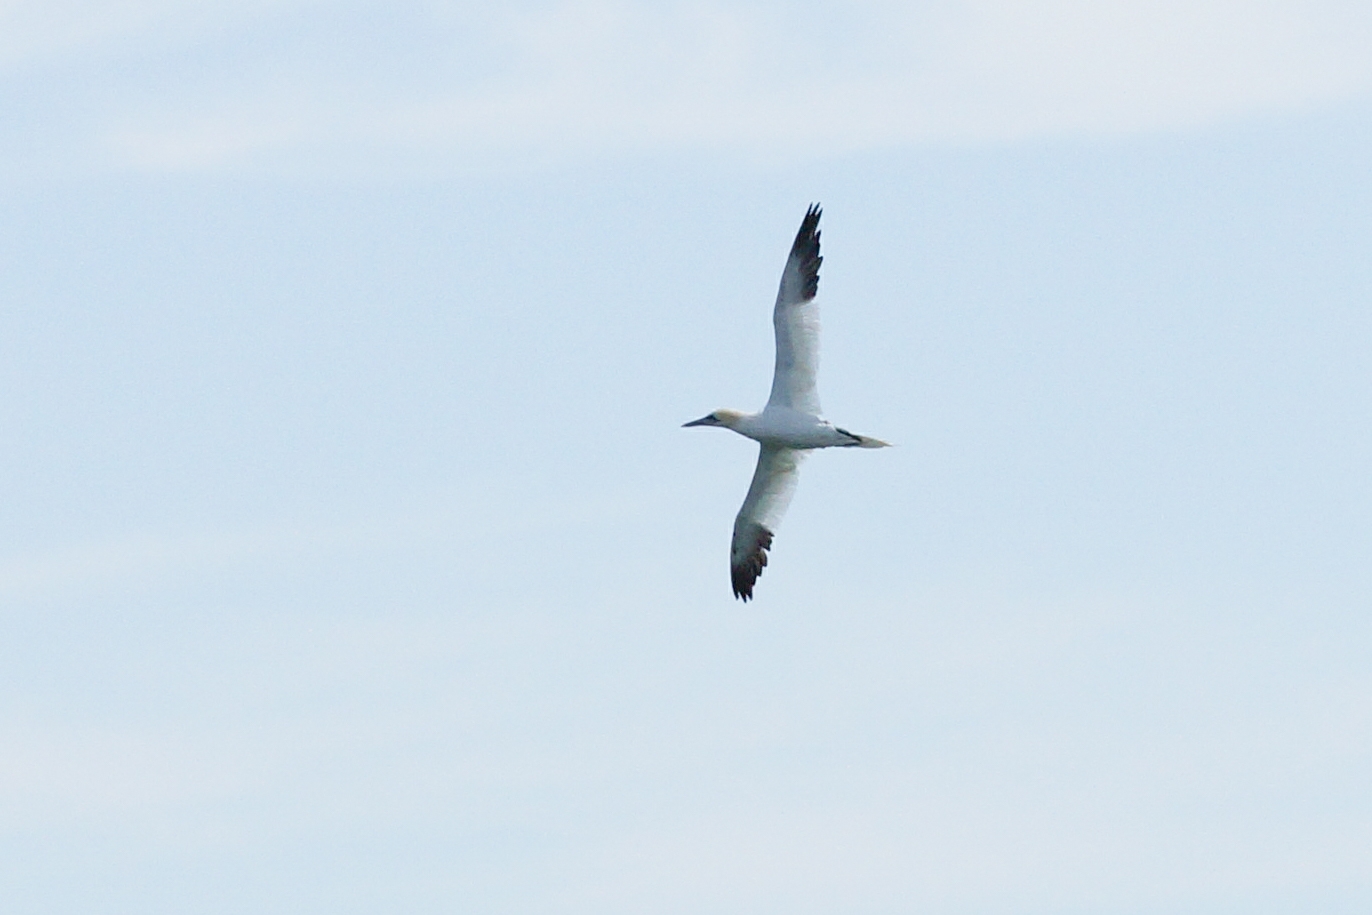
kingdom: Animalia
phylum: Chordata
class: Aves
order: Suliformes
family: Sulidae
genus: Morus
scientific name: Morus bassanus
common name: Northern gannet
